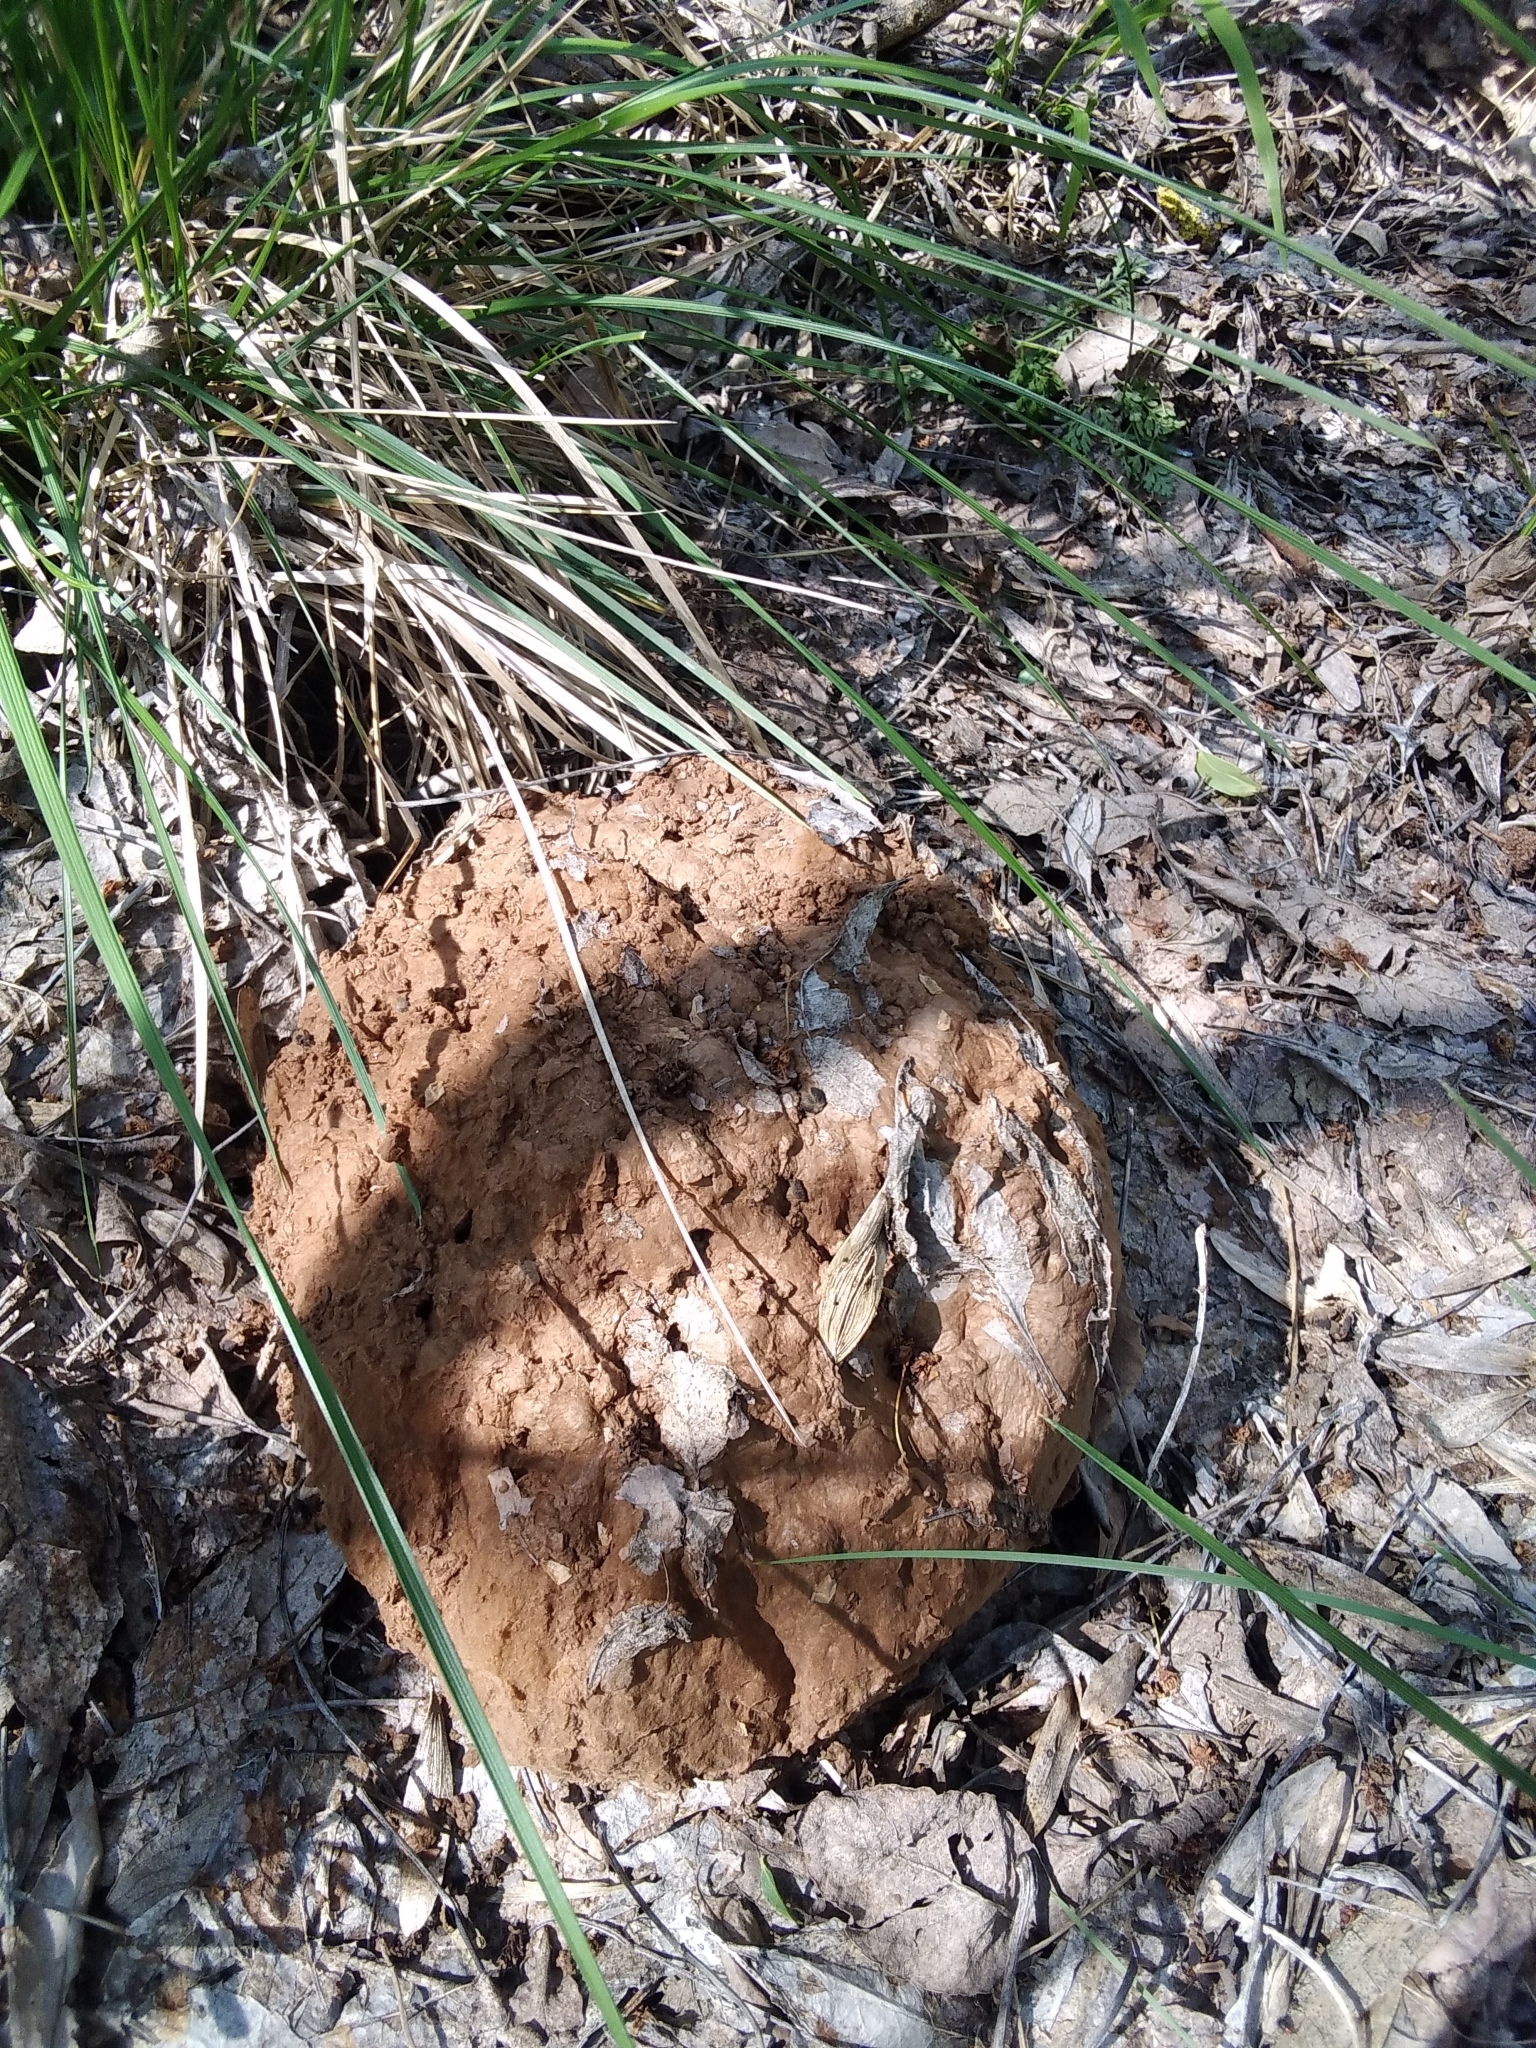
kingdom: Fungi
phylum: Basidiomycota
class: Agaricomycetes
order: Agaricales
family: Lycoperdaceae
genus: Calvatia
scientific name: Calvatia gigantea
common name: Giant puffball
